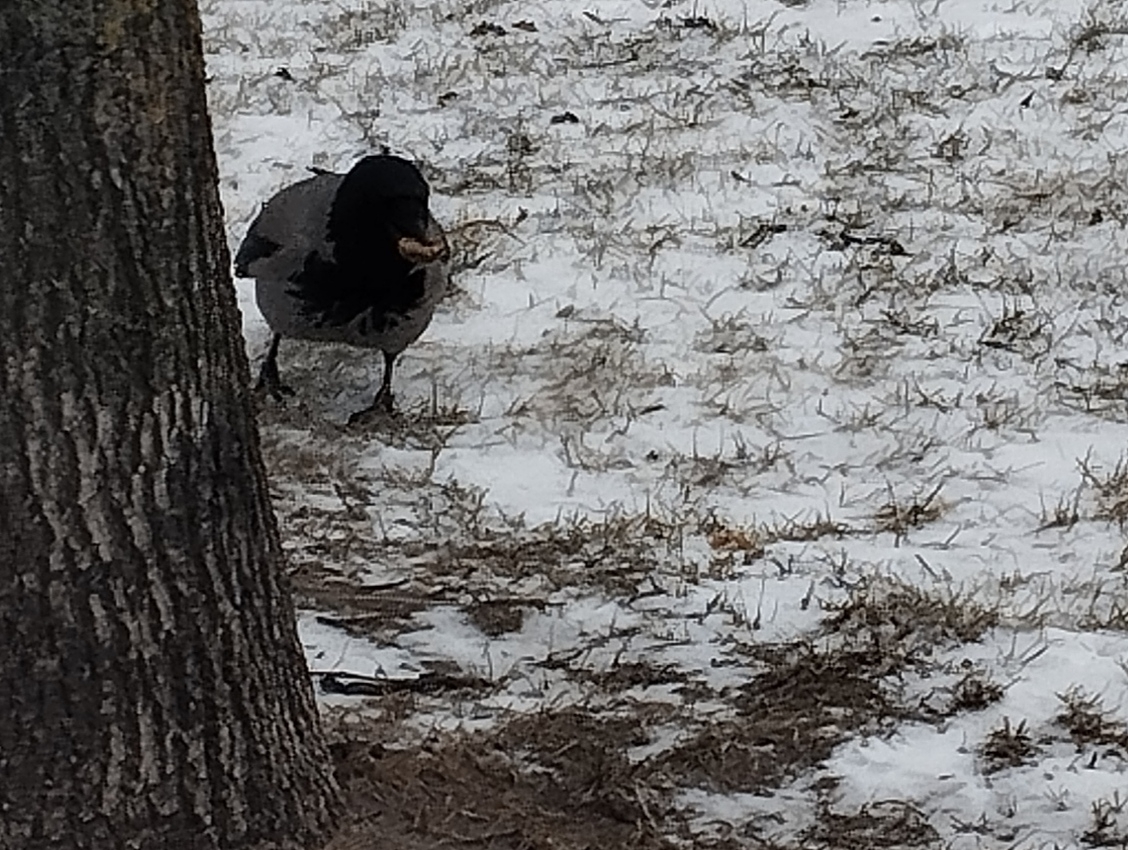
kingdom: Animalia
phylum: Chordata
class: Aves
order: Passeriformes
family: Corvidae
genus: Corvus
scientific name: Corvus cornix
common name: Hooded crow
